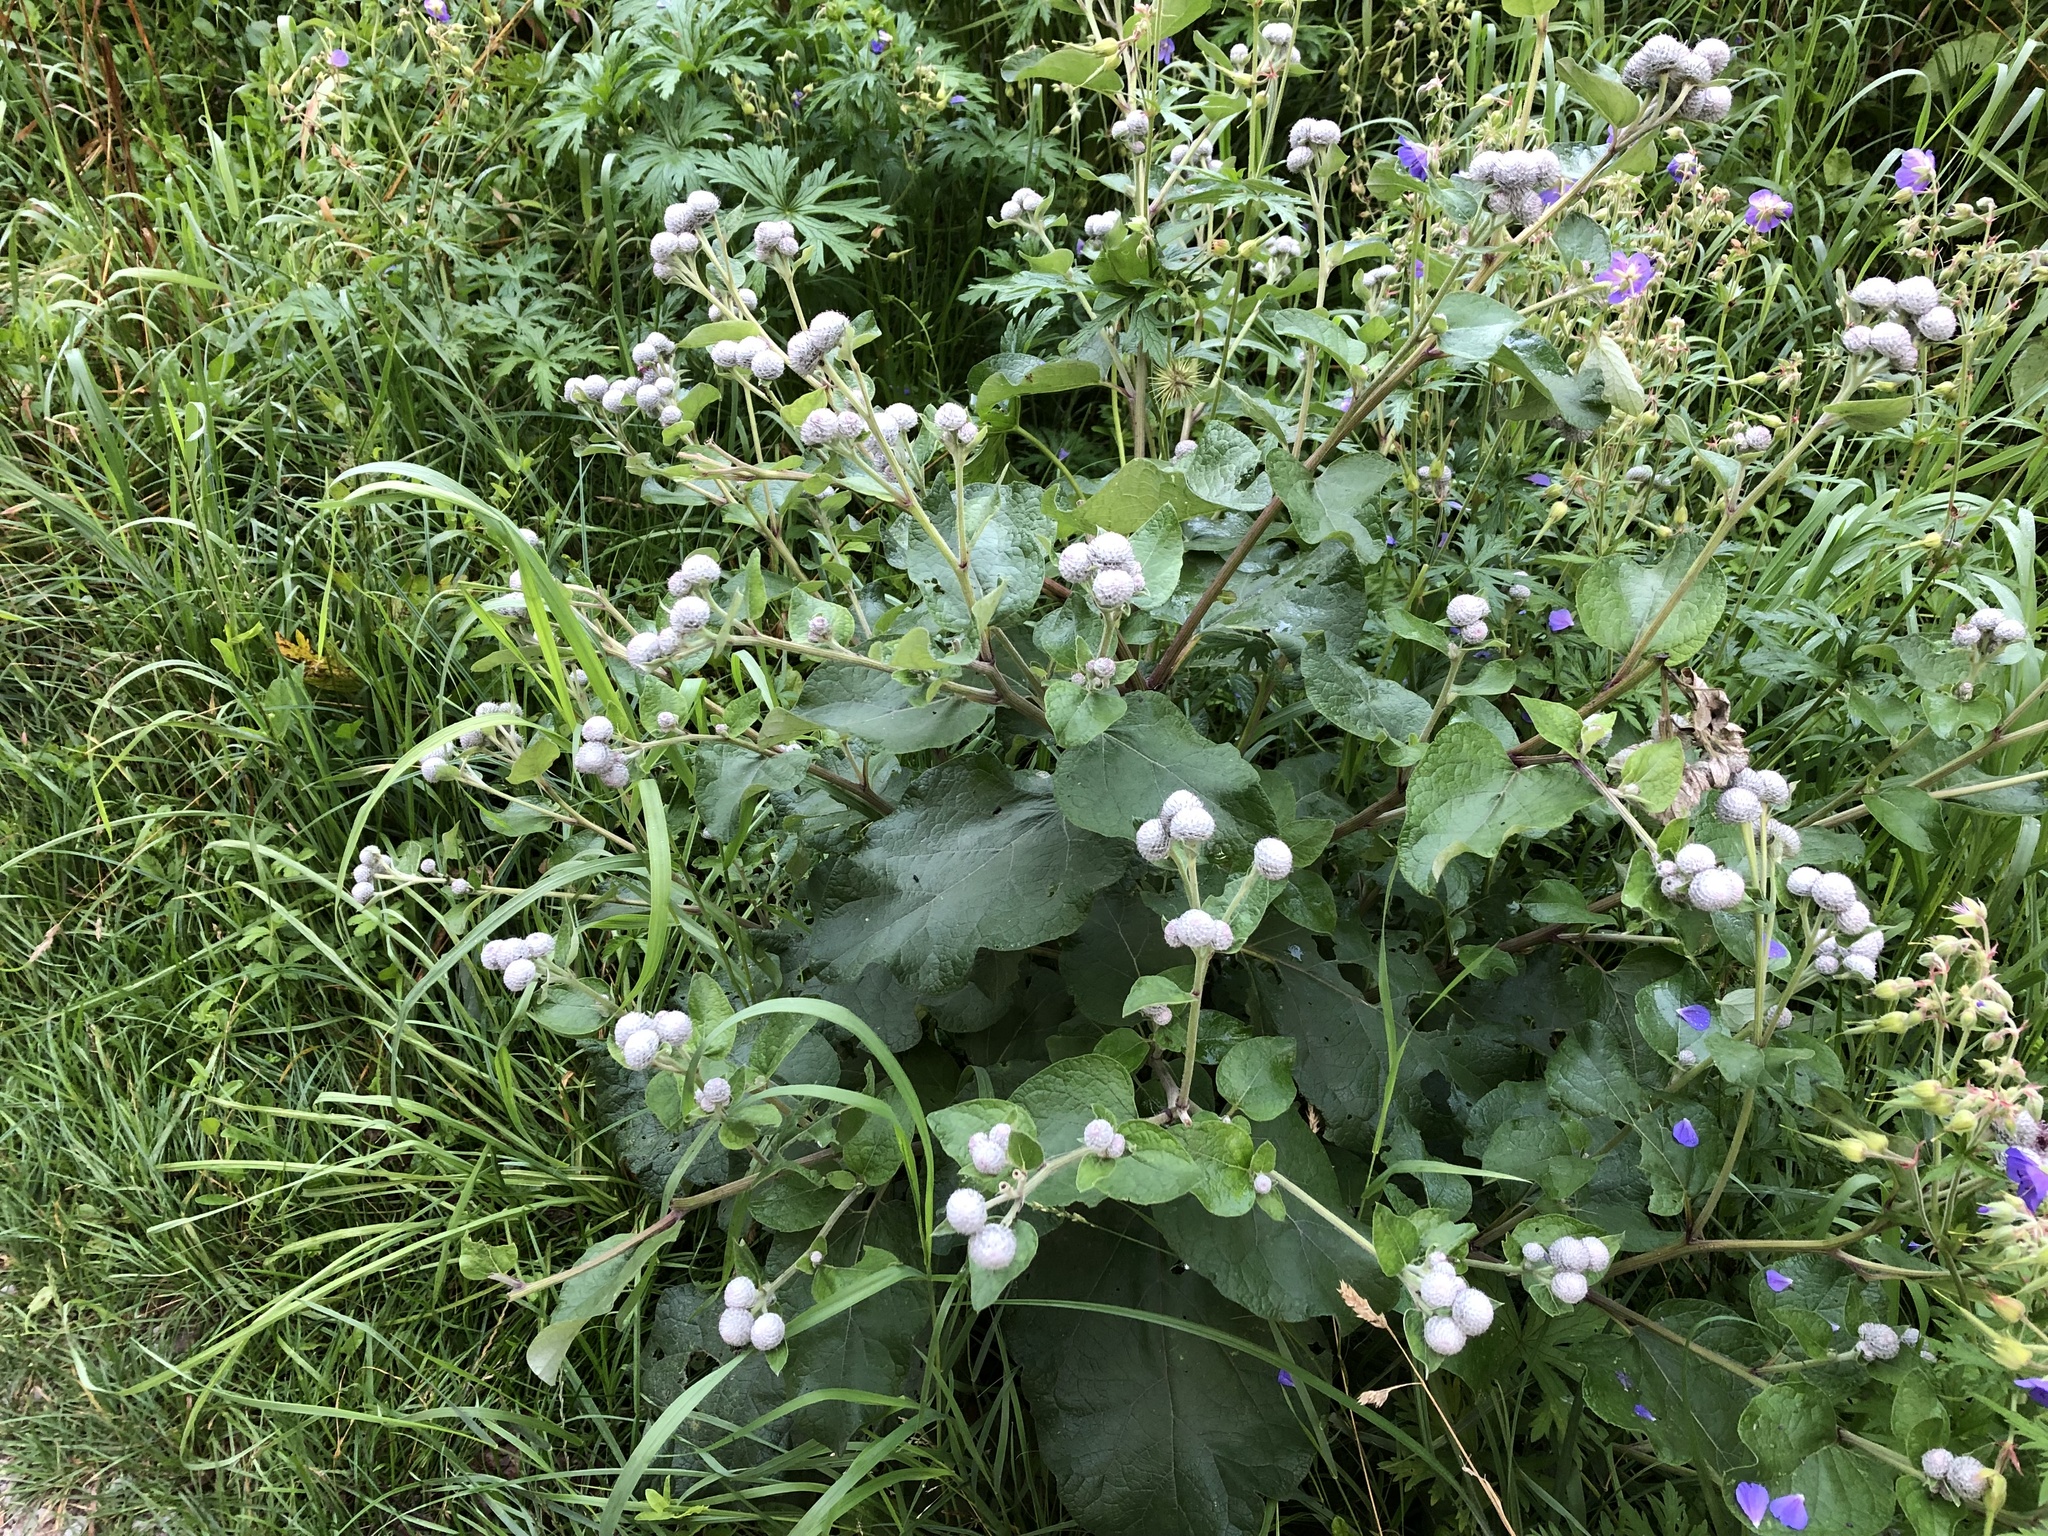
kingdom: Plantae
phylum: Tracheophyta
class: Magnoliopsida
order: Asterales
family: Asteraceae
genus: Arctium
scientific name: Arctium tomentosum
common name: Woolly burdock
